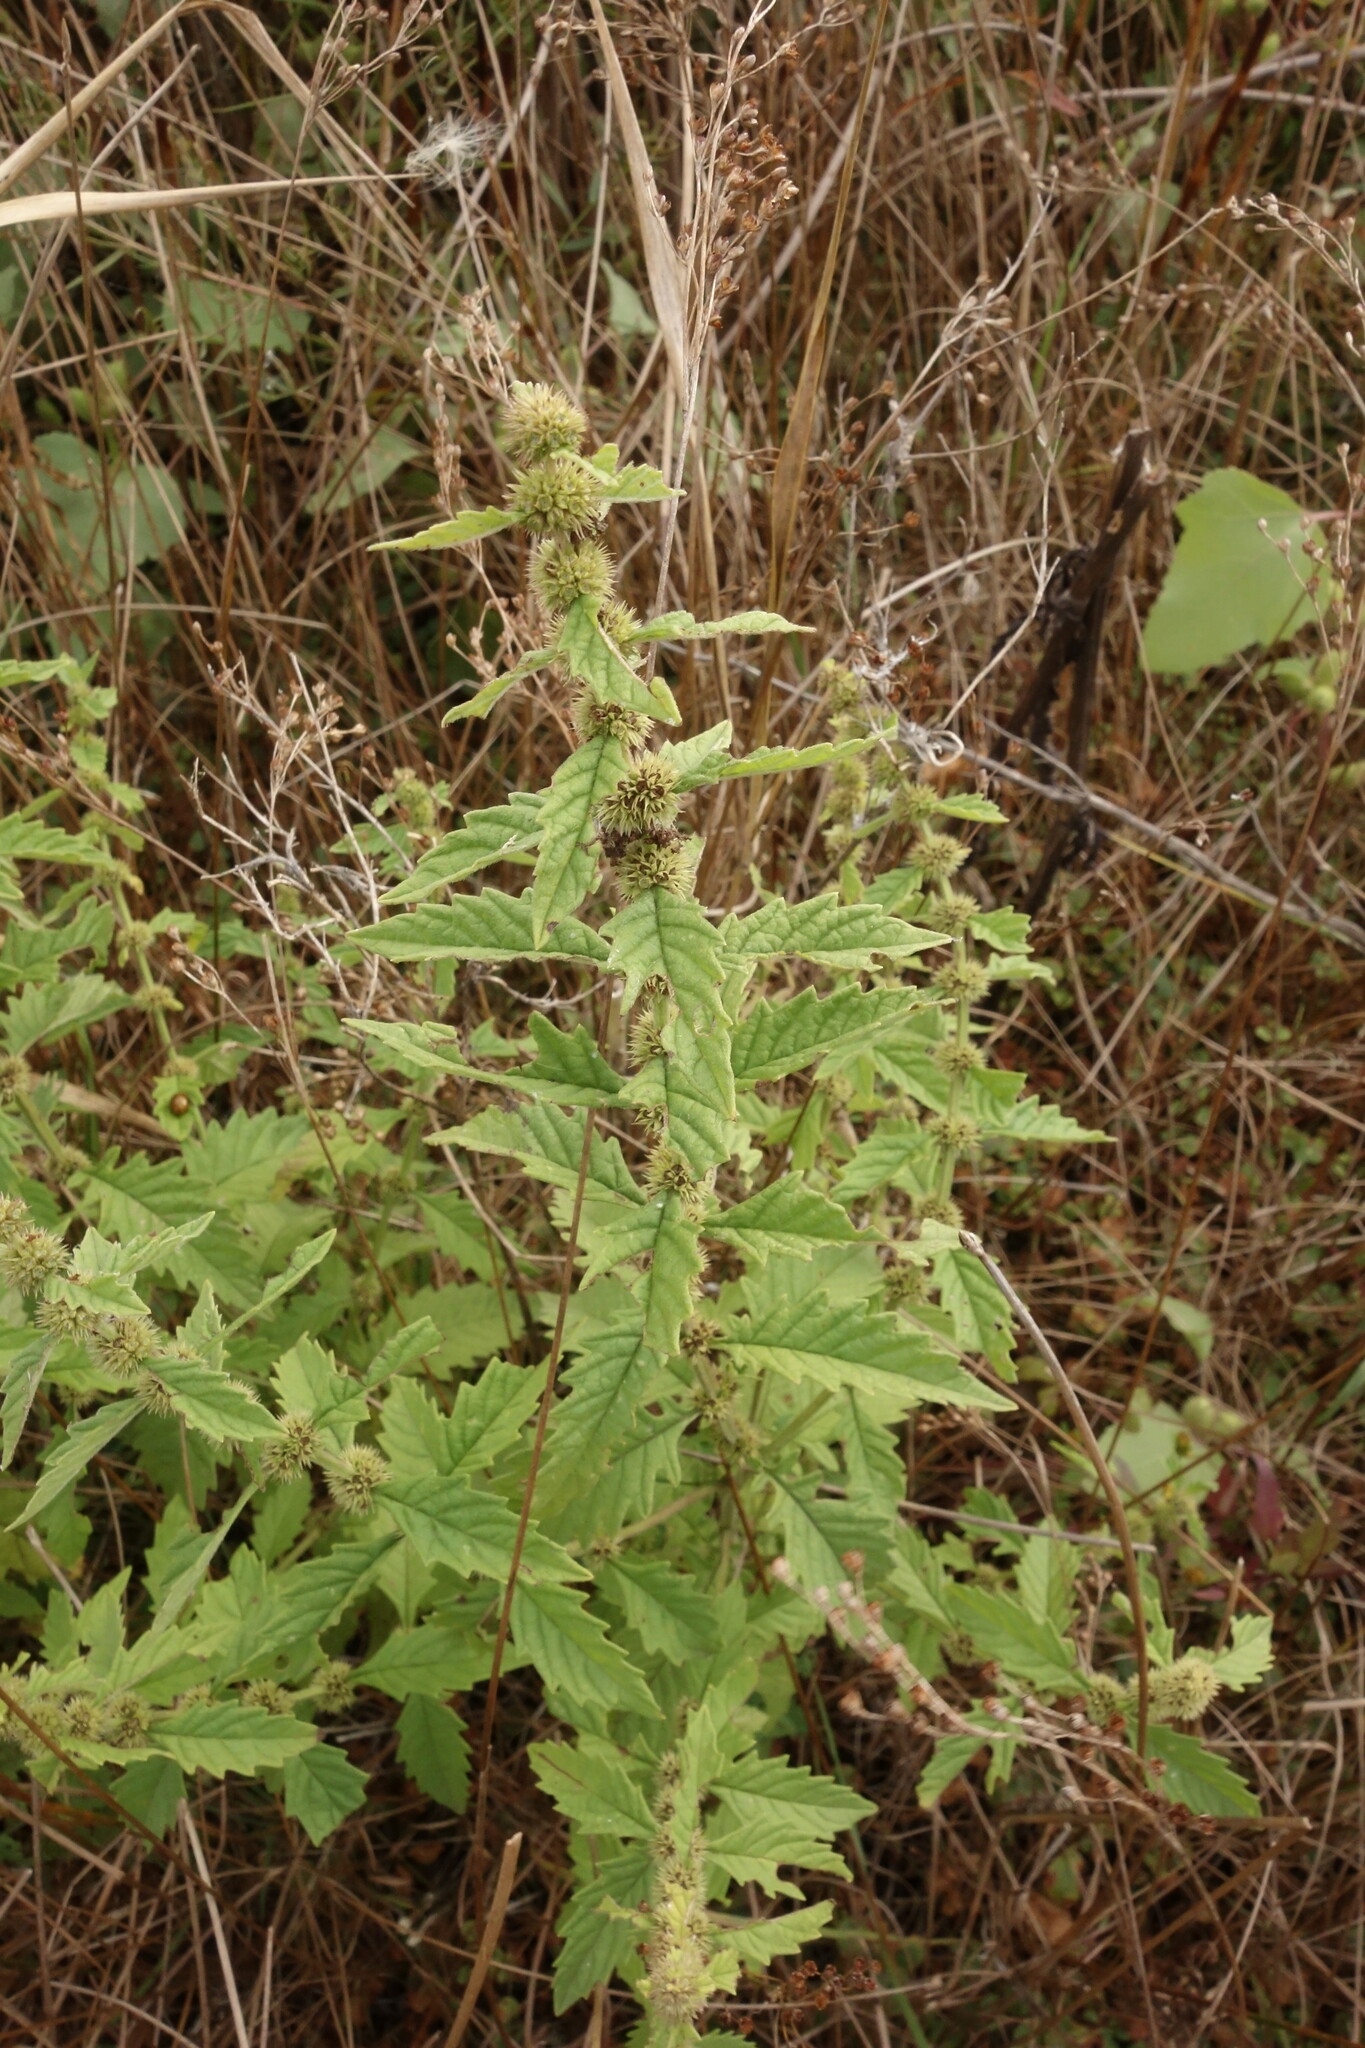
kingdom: Plantae
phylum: Tracheophyta
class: Magnoliopsida
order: Lamiales
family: Lamiaceae
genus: Lycopus
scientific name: Lycopus europaeus
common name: European bugleweed
